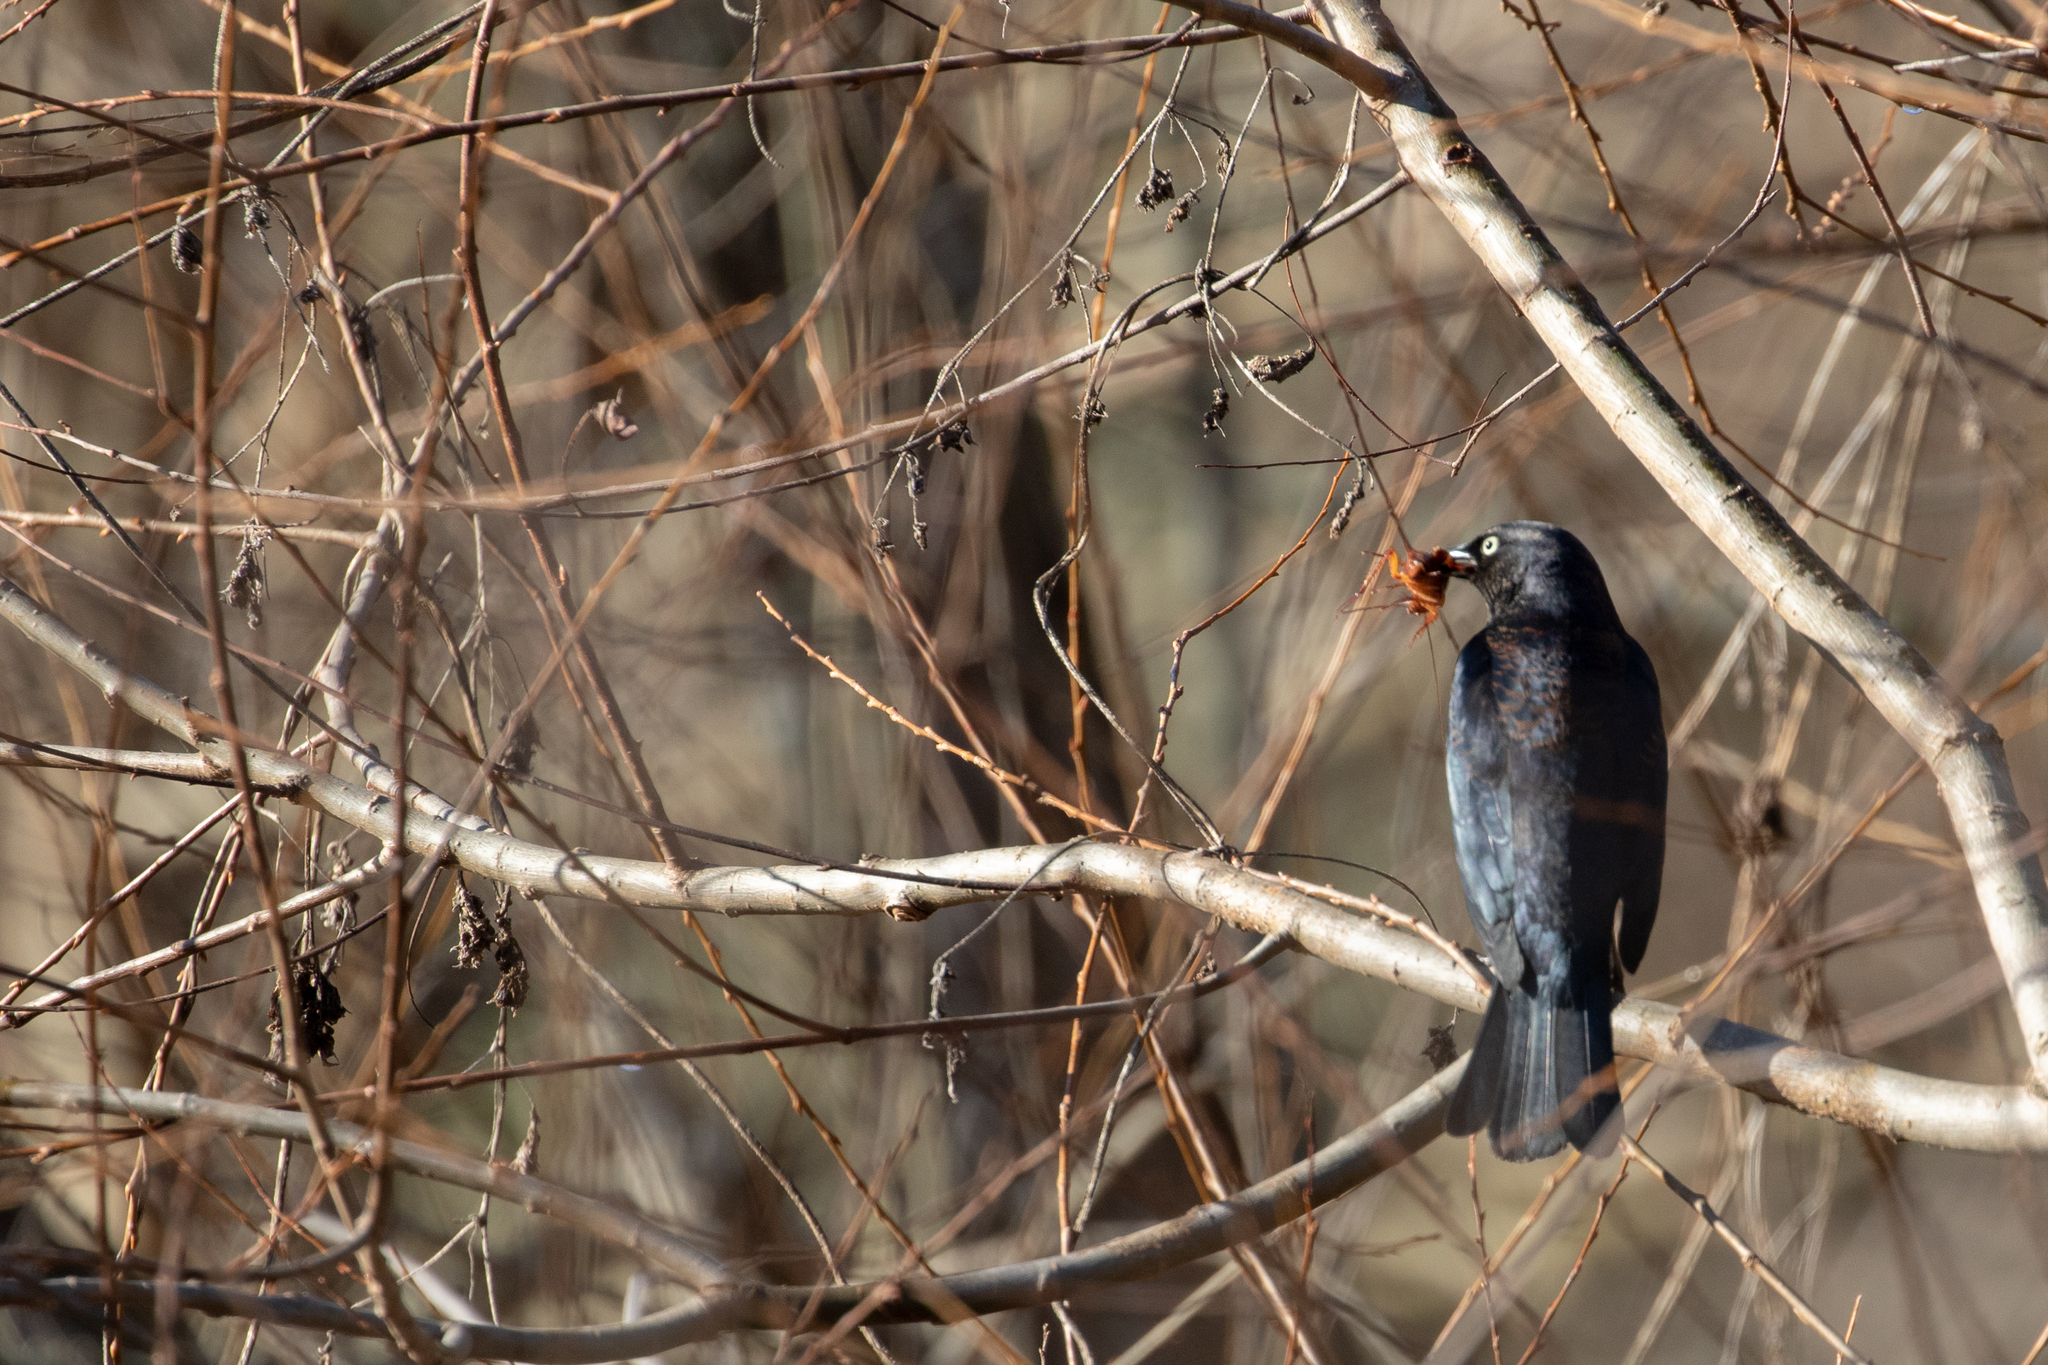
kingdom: Animalia
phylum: Chordata
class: Aves
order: Passeriformes
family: Icteridae
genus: Euphagus
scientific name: Euphagus carolinus
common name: Rusty blackbird
